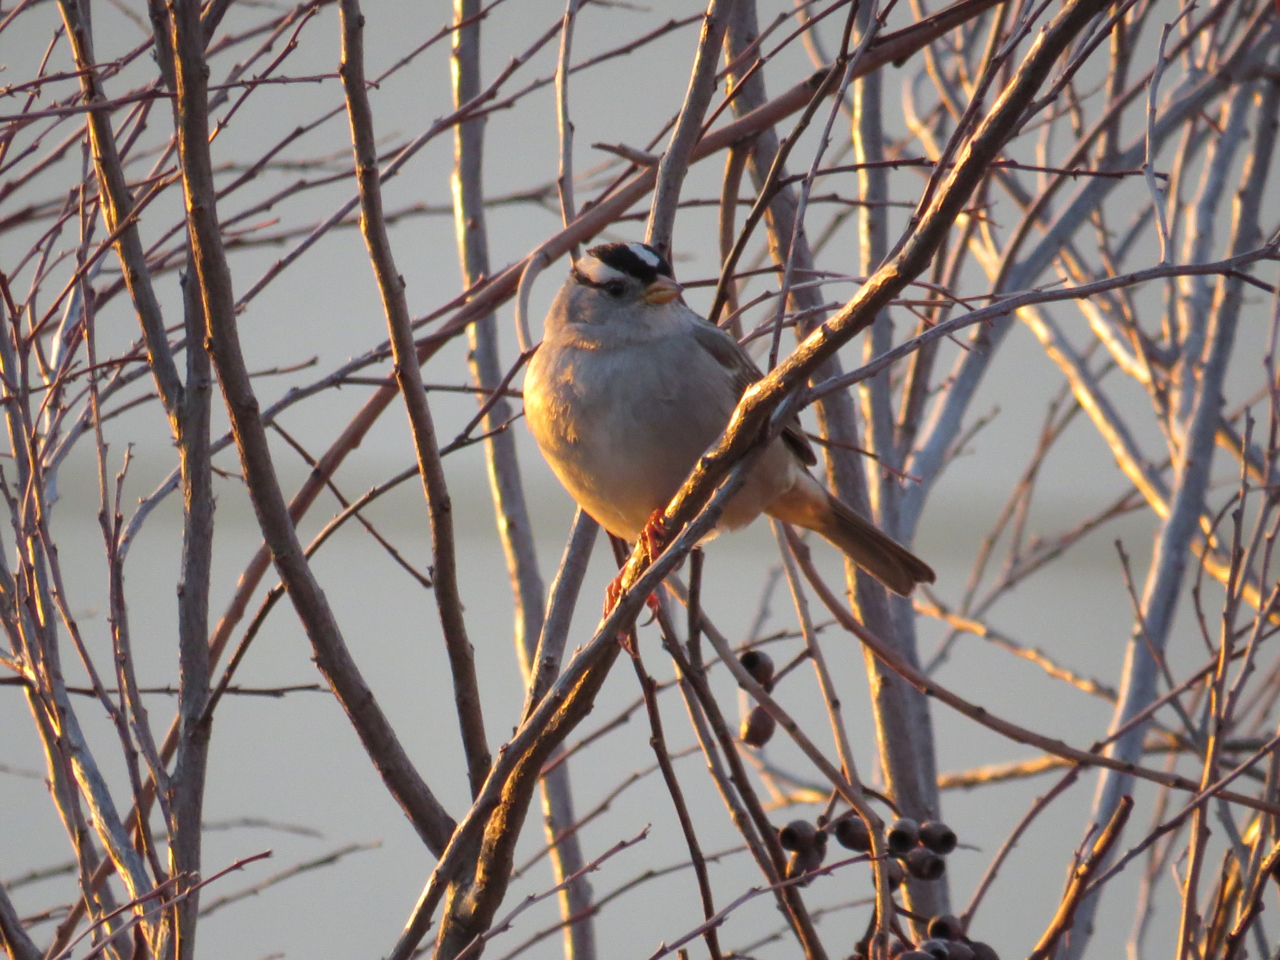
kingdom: Animalia
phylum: Chordata
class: Aves
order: Passeriformes
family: Passerellidae
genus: Zonotrichia
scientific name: Zonotrichia leucophrys
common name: White-crowned sparrow
